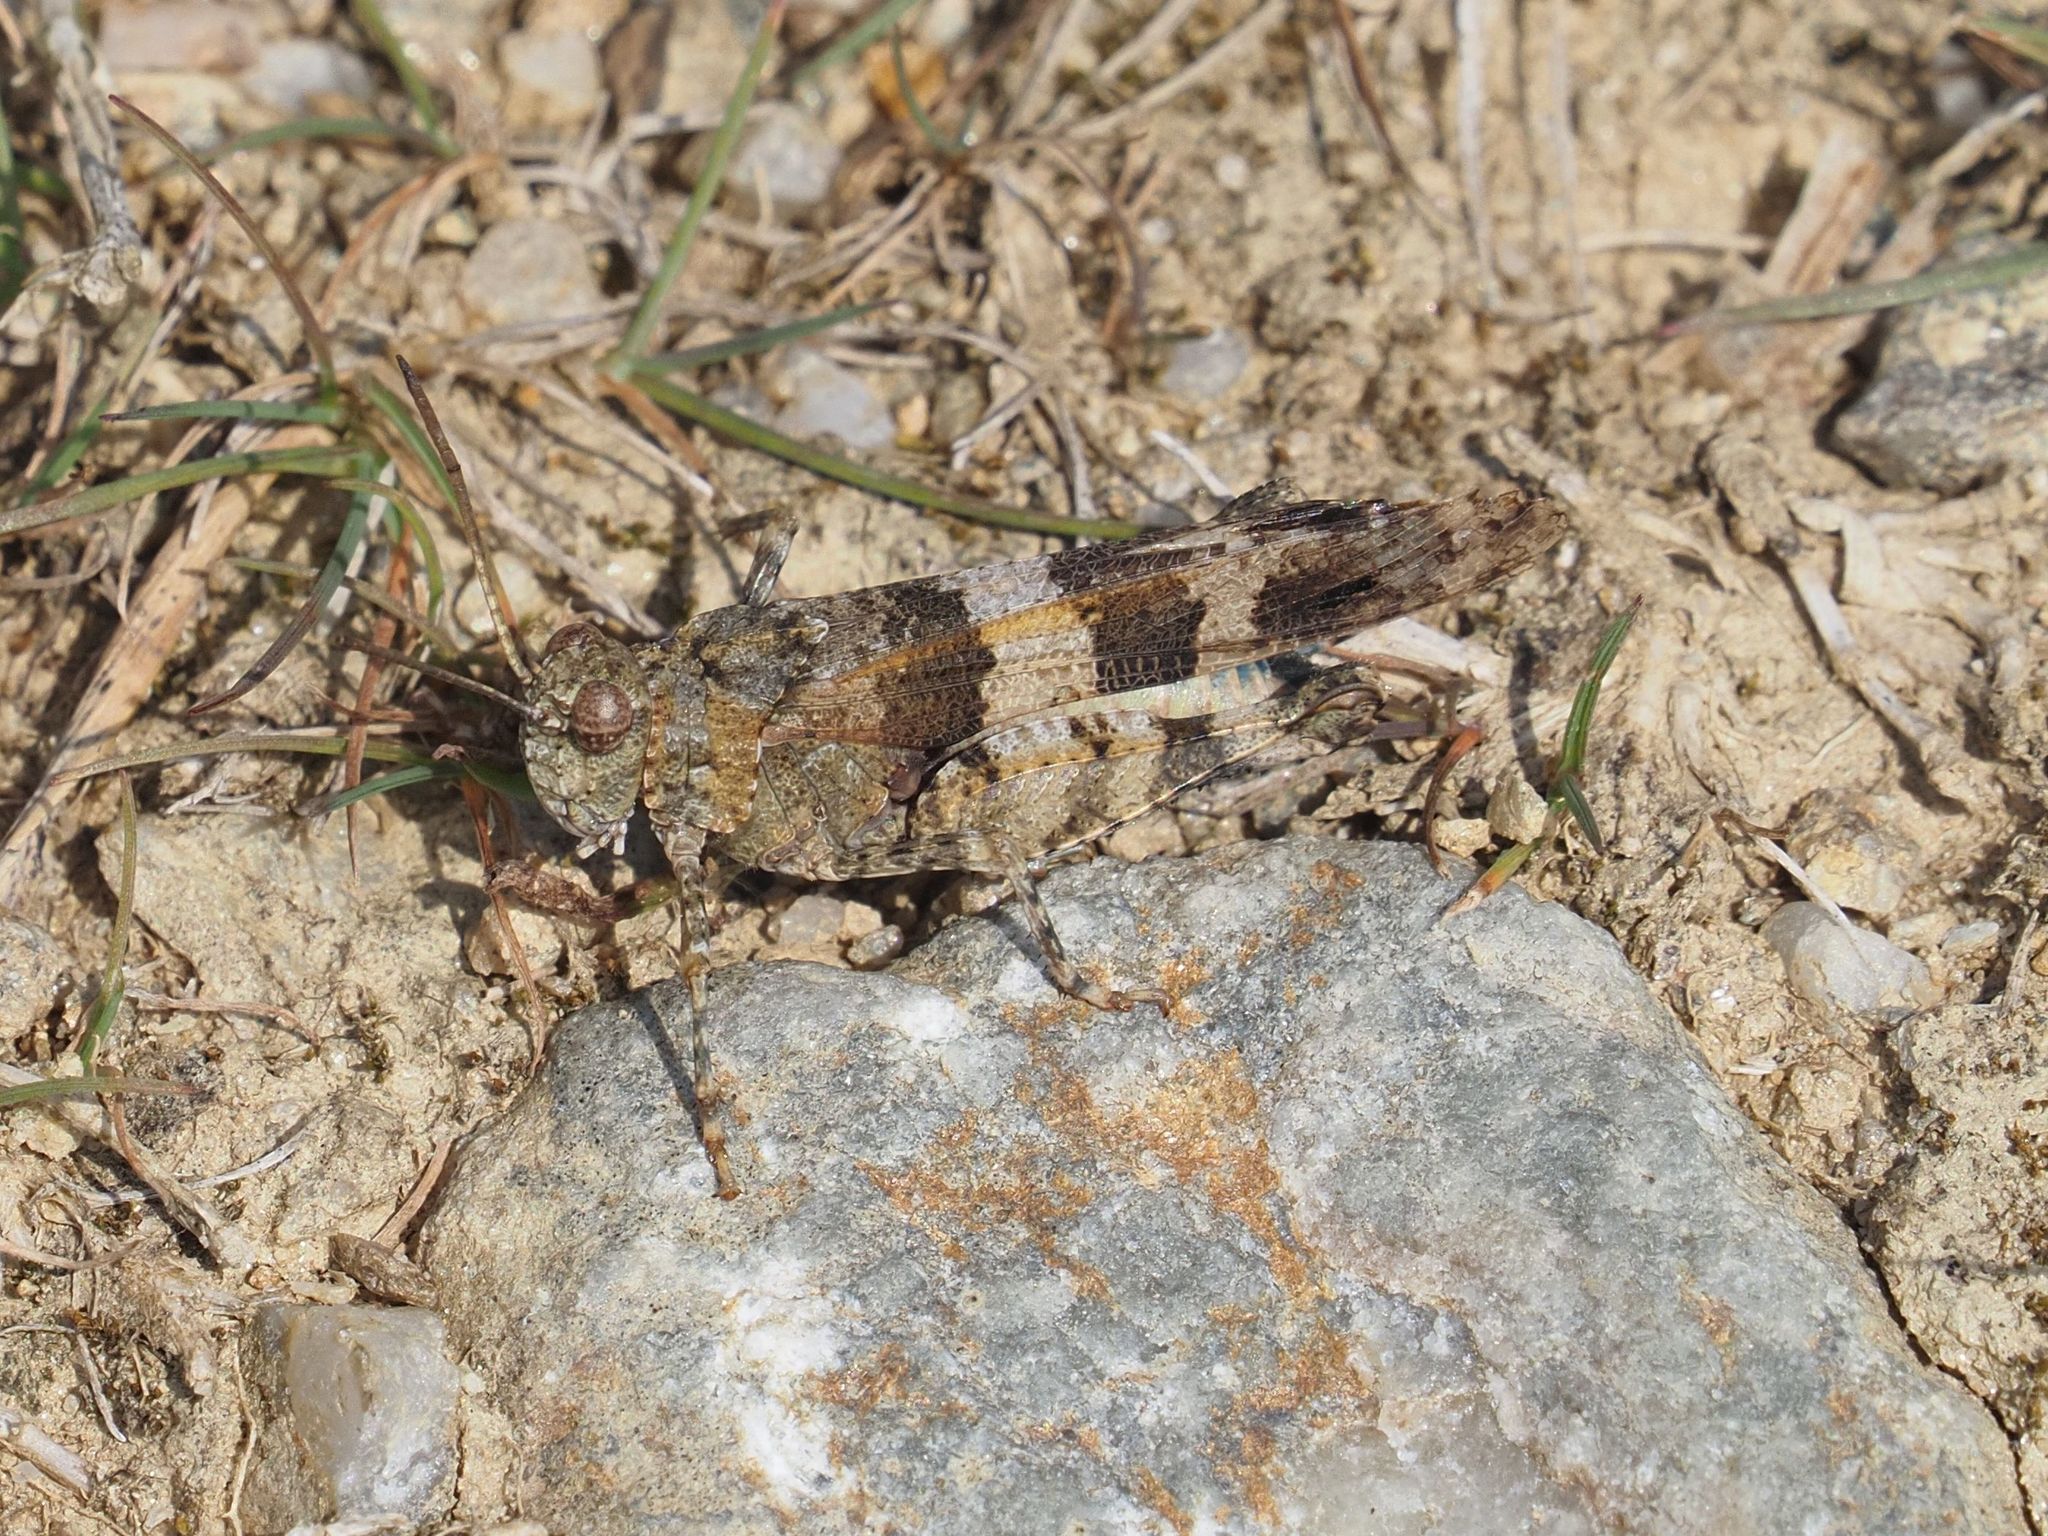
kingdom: Animalia
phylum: Arthropoda
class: Insecta
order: Orthoptera
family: Acrididae
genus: Oedipoda
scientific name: Oedipoda caerulescens
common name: Blue-winged grasshopper
